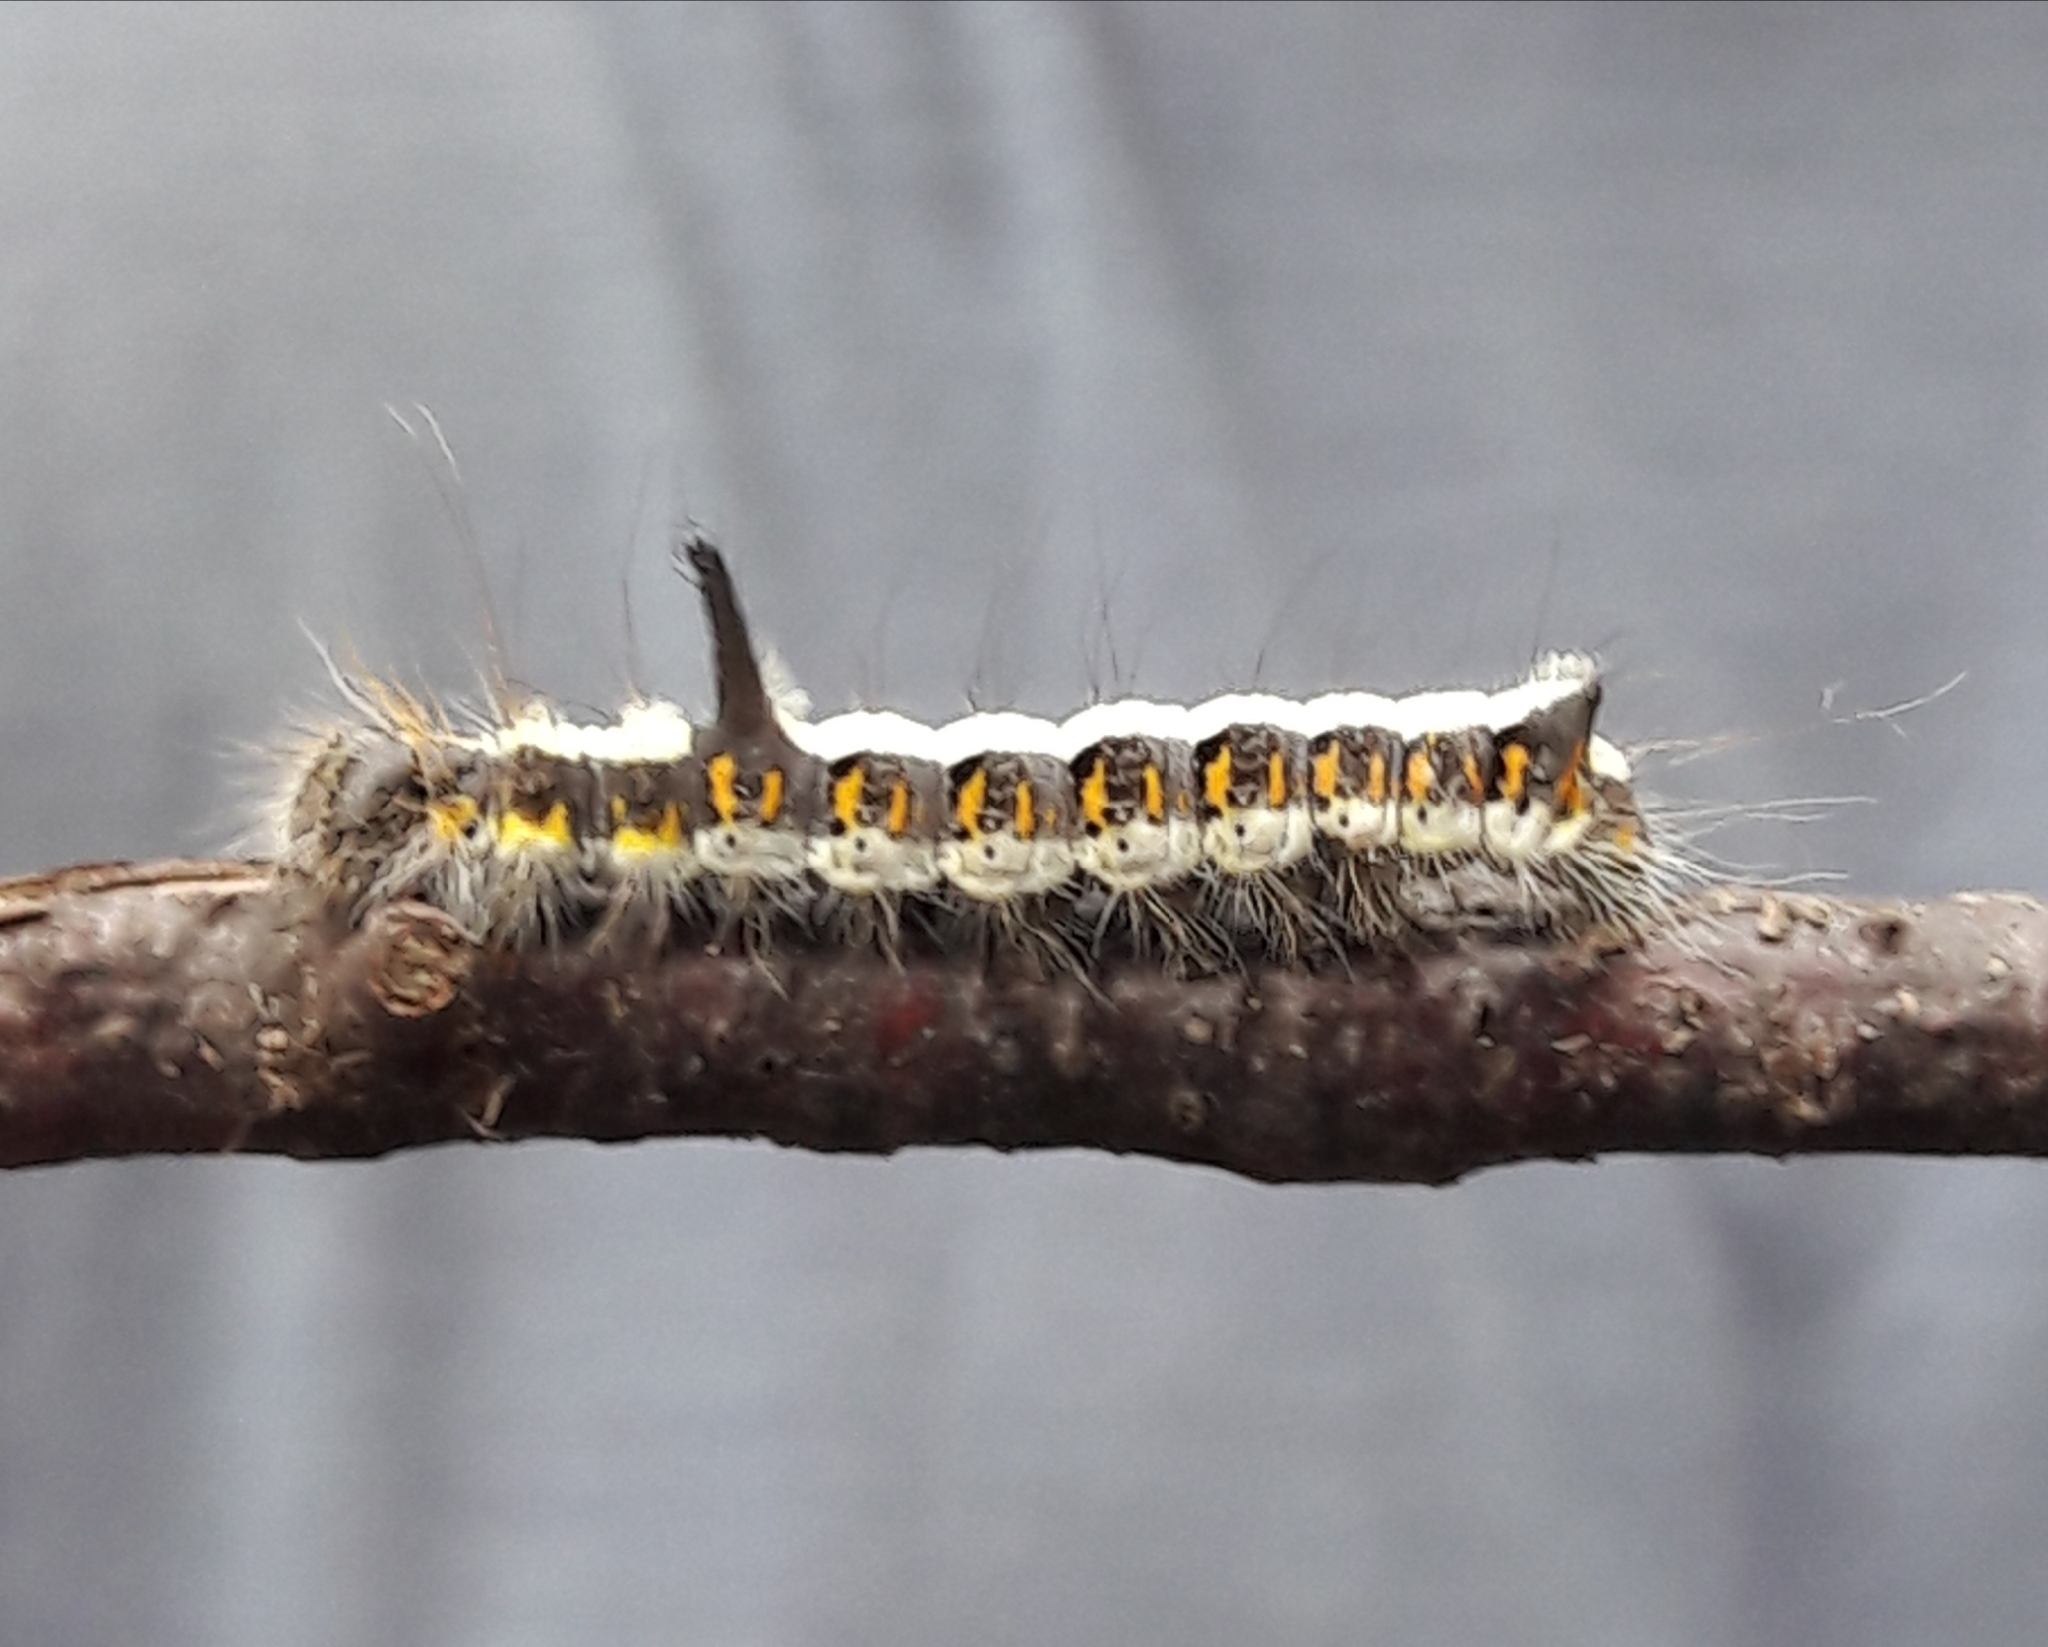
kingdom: Animalia
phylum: Arthropoda
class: Insecta
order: Lepidoptera
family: Noctuidae
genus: Acronicta
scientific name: Acronicta psi
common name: Grey dagger
